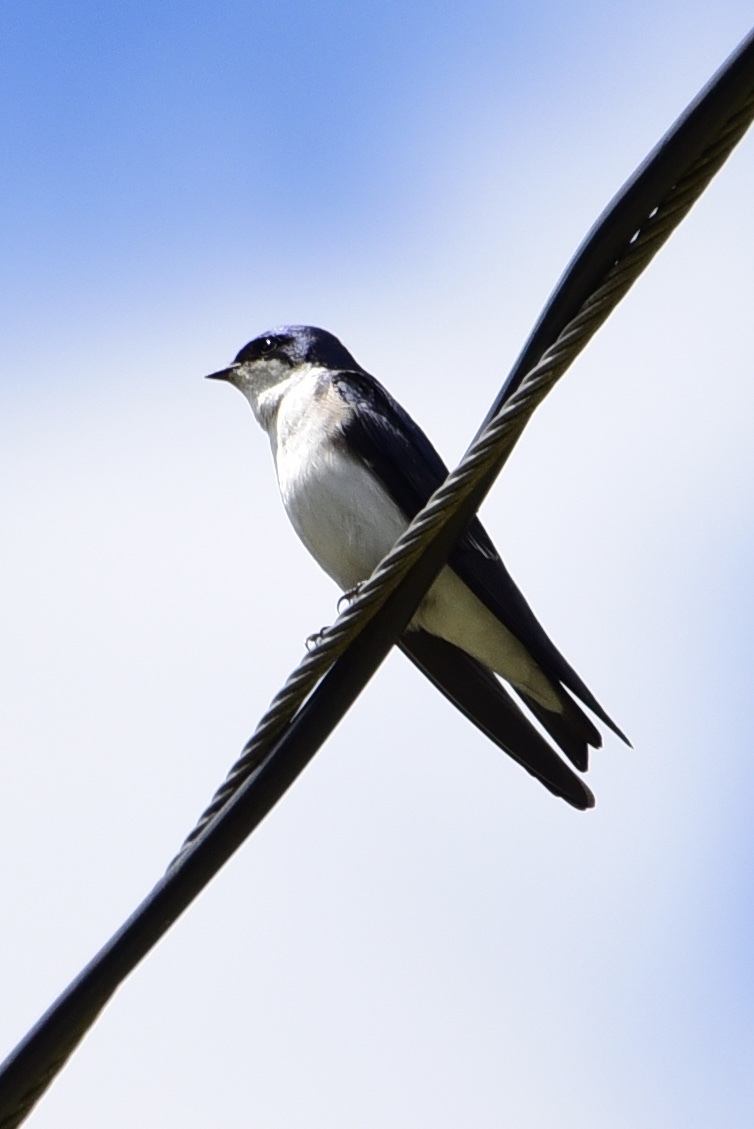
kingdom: Animalia
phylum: Chordata
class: Aves
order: Passeriformes
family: Hirundinidae
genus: Tachycineta
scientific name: Tachycineta leucopyga
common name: Chilean swallow
